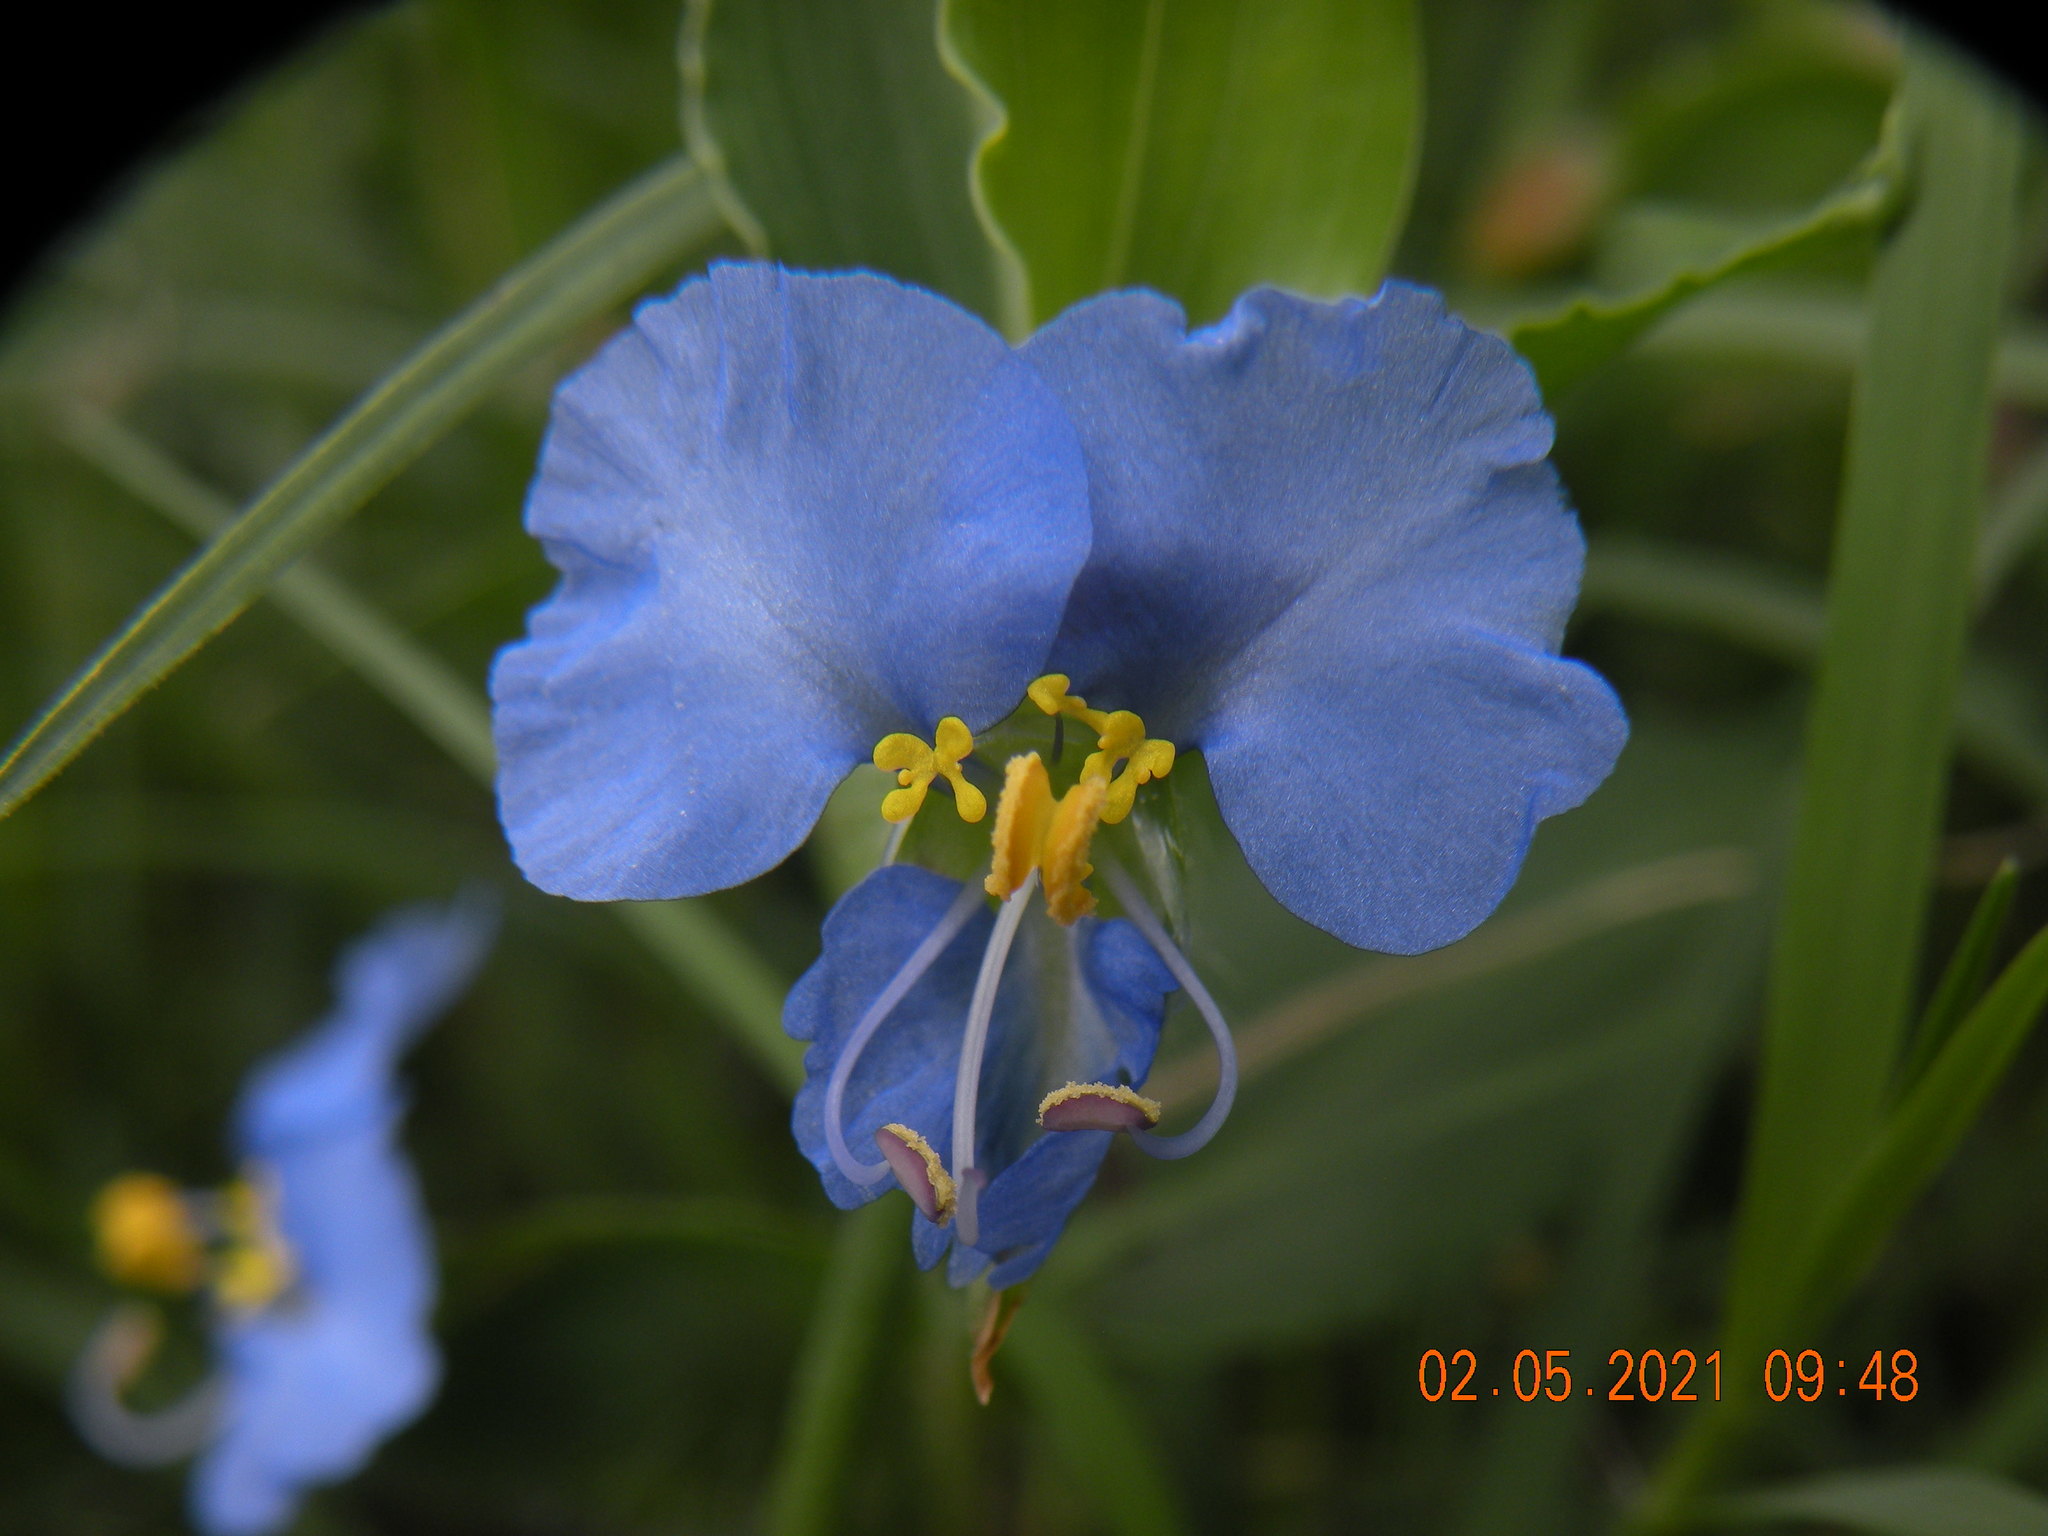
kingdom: Plantae
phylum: Tracheophyta
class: Liliopsida
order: Commelinales
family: Commelinaceae
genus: Commelina
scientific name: Commelina erecta
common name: Blousel blommetjie
